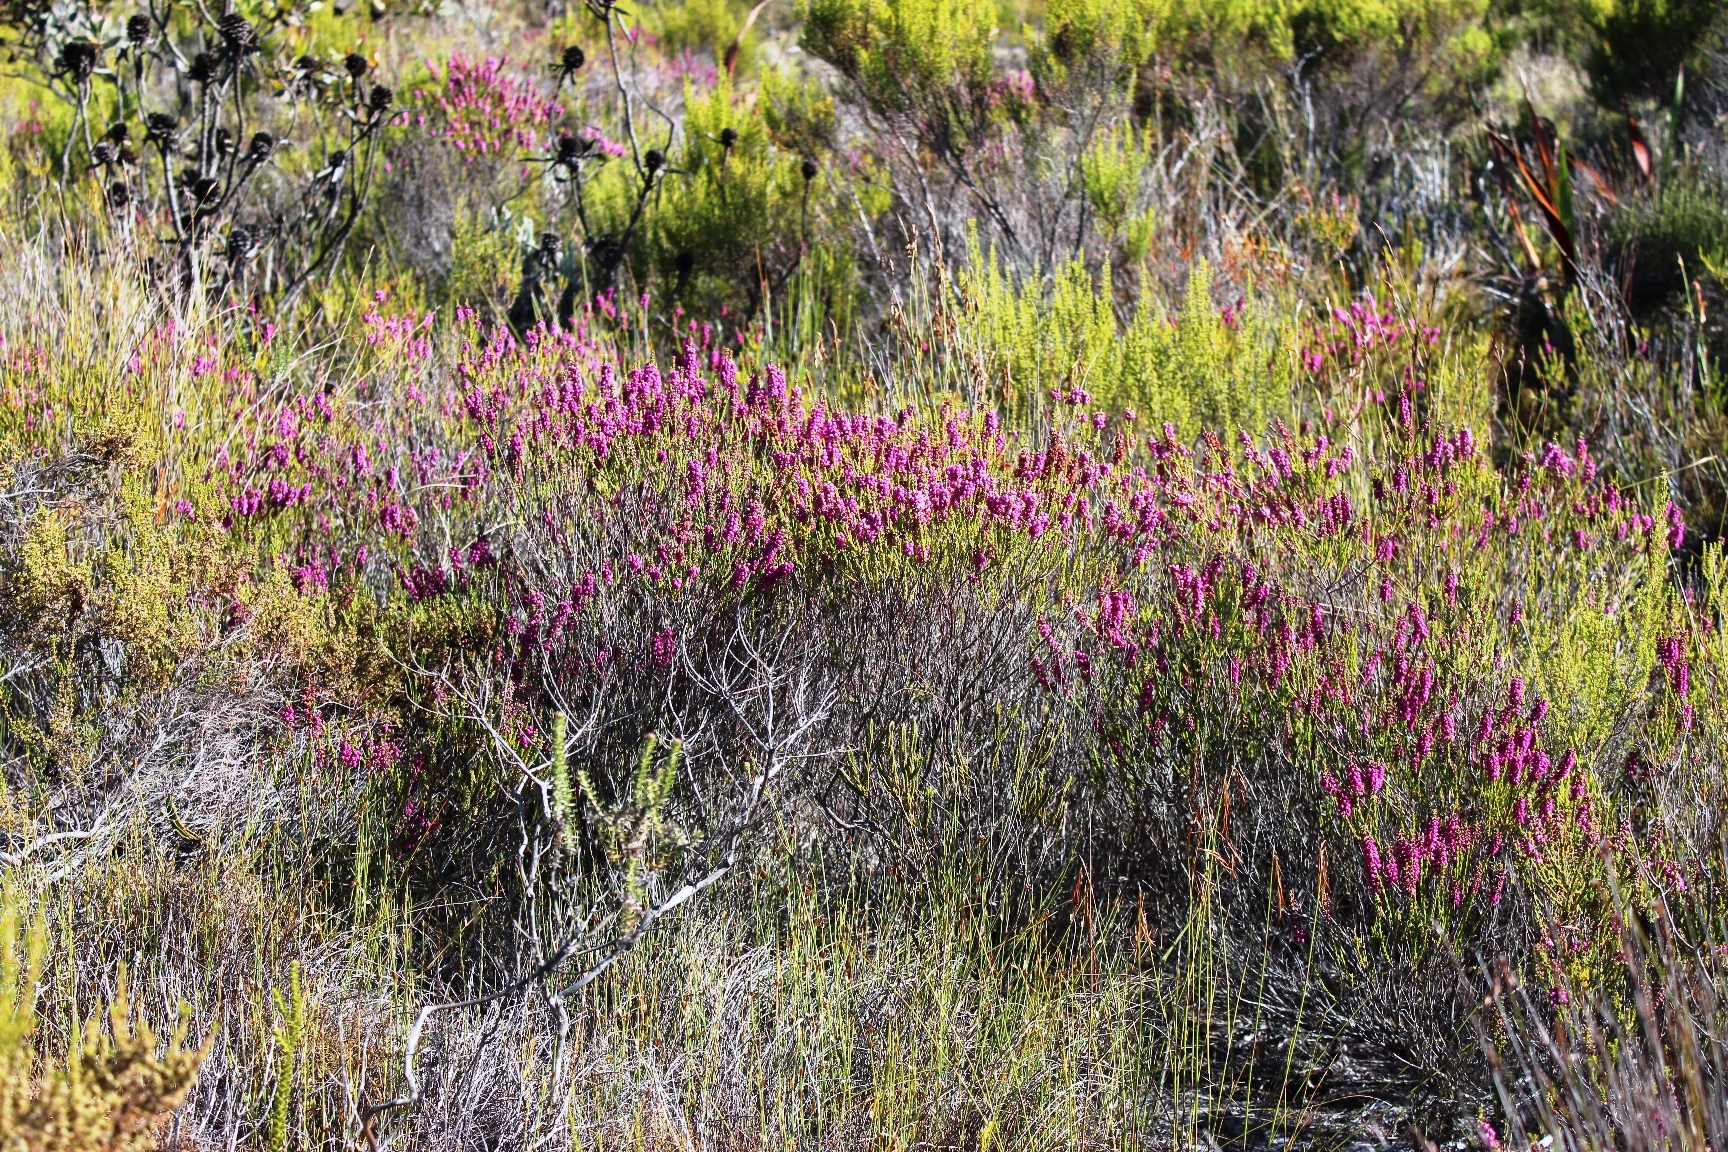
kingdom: Plantae
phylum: Tracheophyta
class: Magnoliopsida
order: Ericales
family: Ericaceae
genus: Erica
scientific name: Erica pulchella
